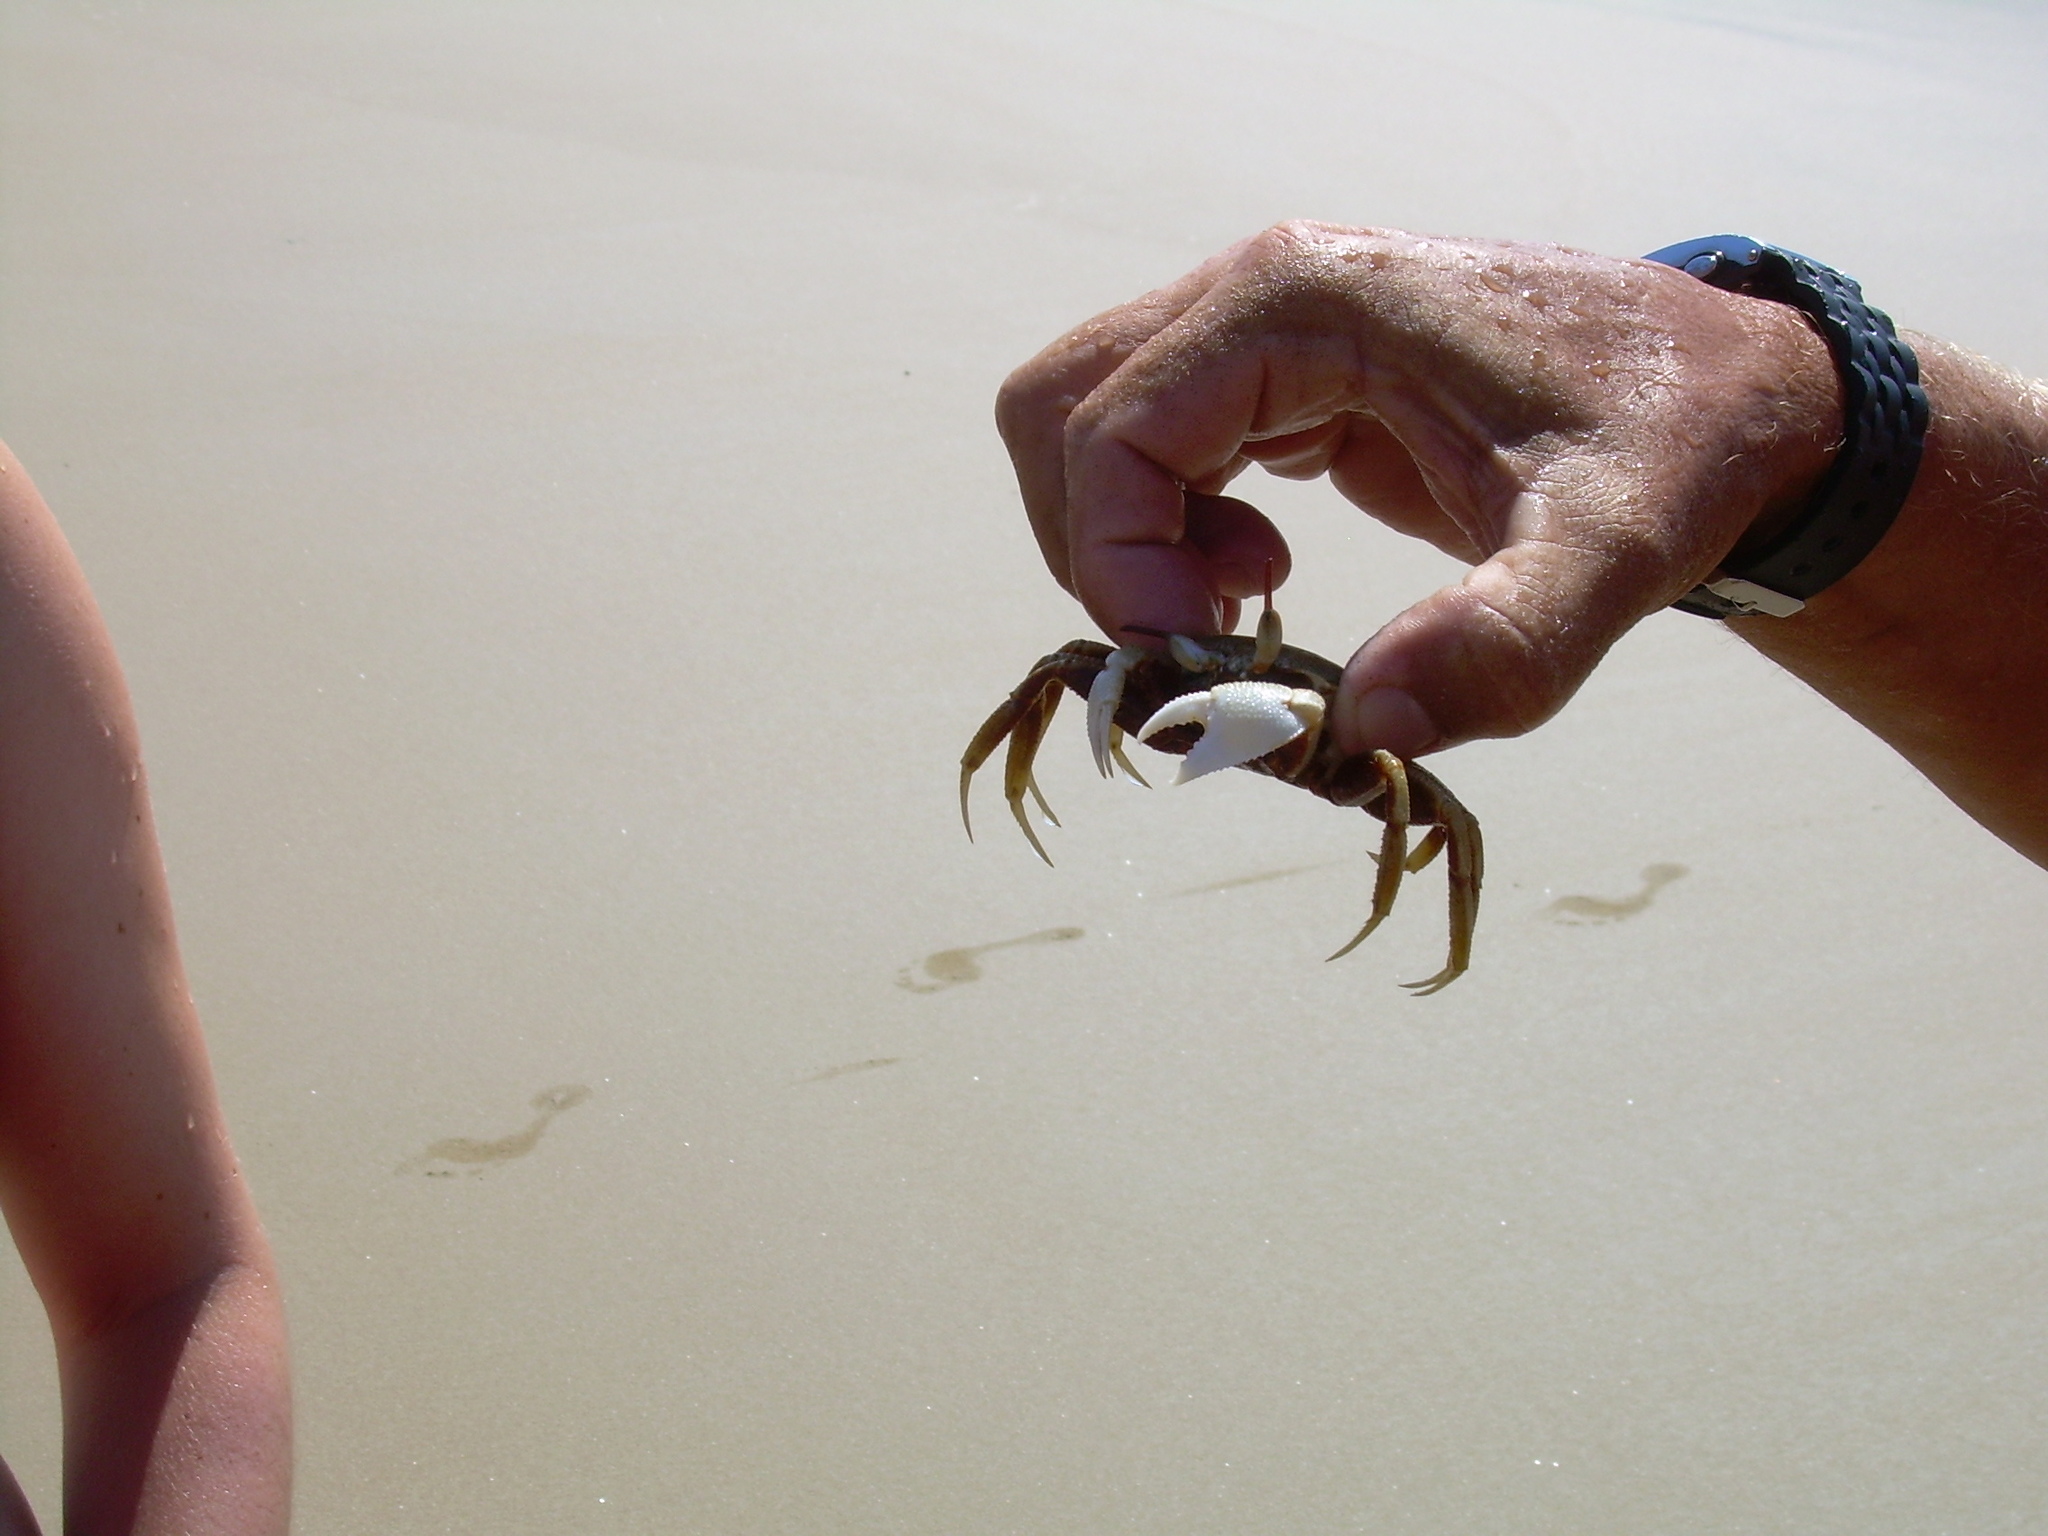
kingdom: Animalia
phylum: Arthropoda
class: Malacostraca
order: Decapoda
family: Ocypodidae
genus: Ocypode
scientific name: Ocypode ceratophthalmus
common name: Indo-pacific ghost crab
